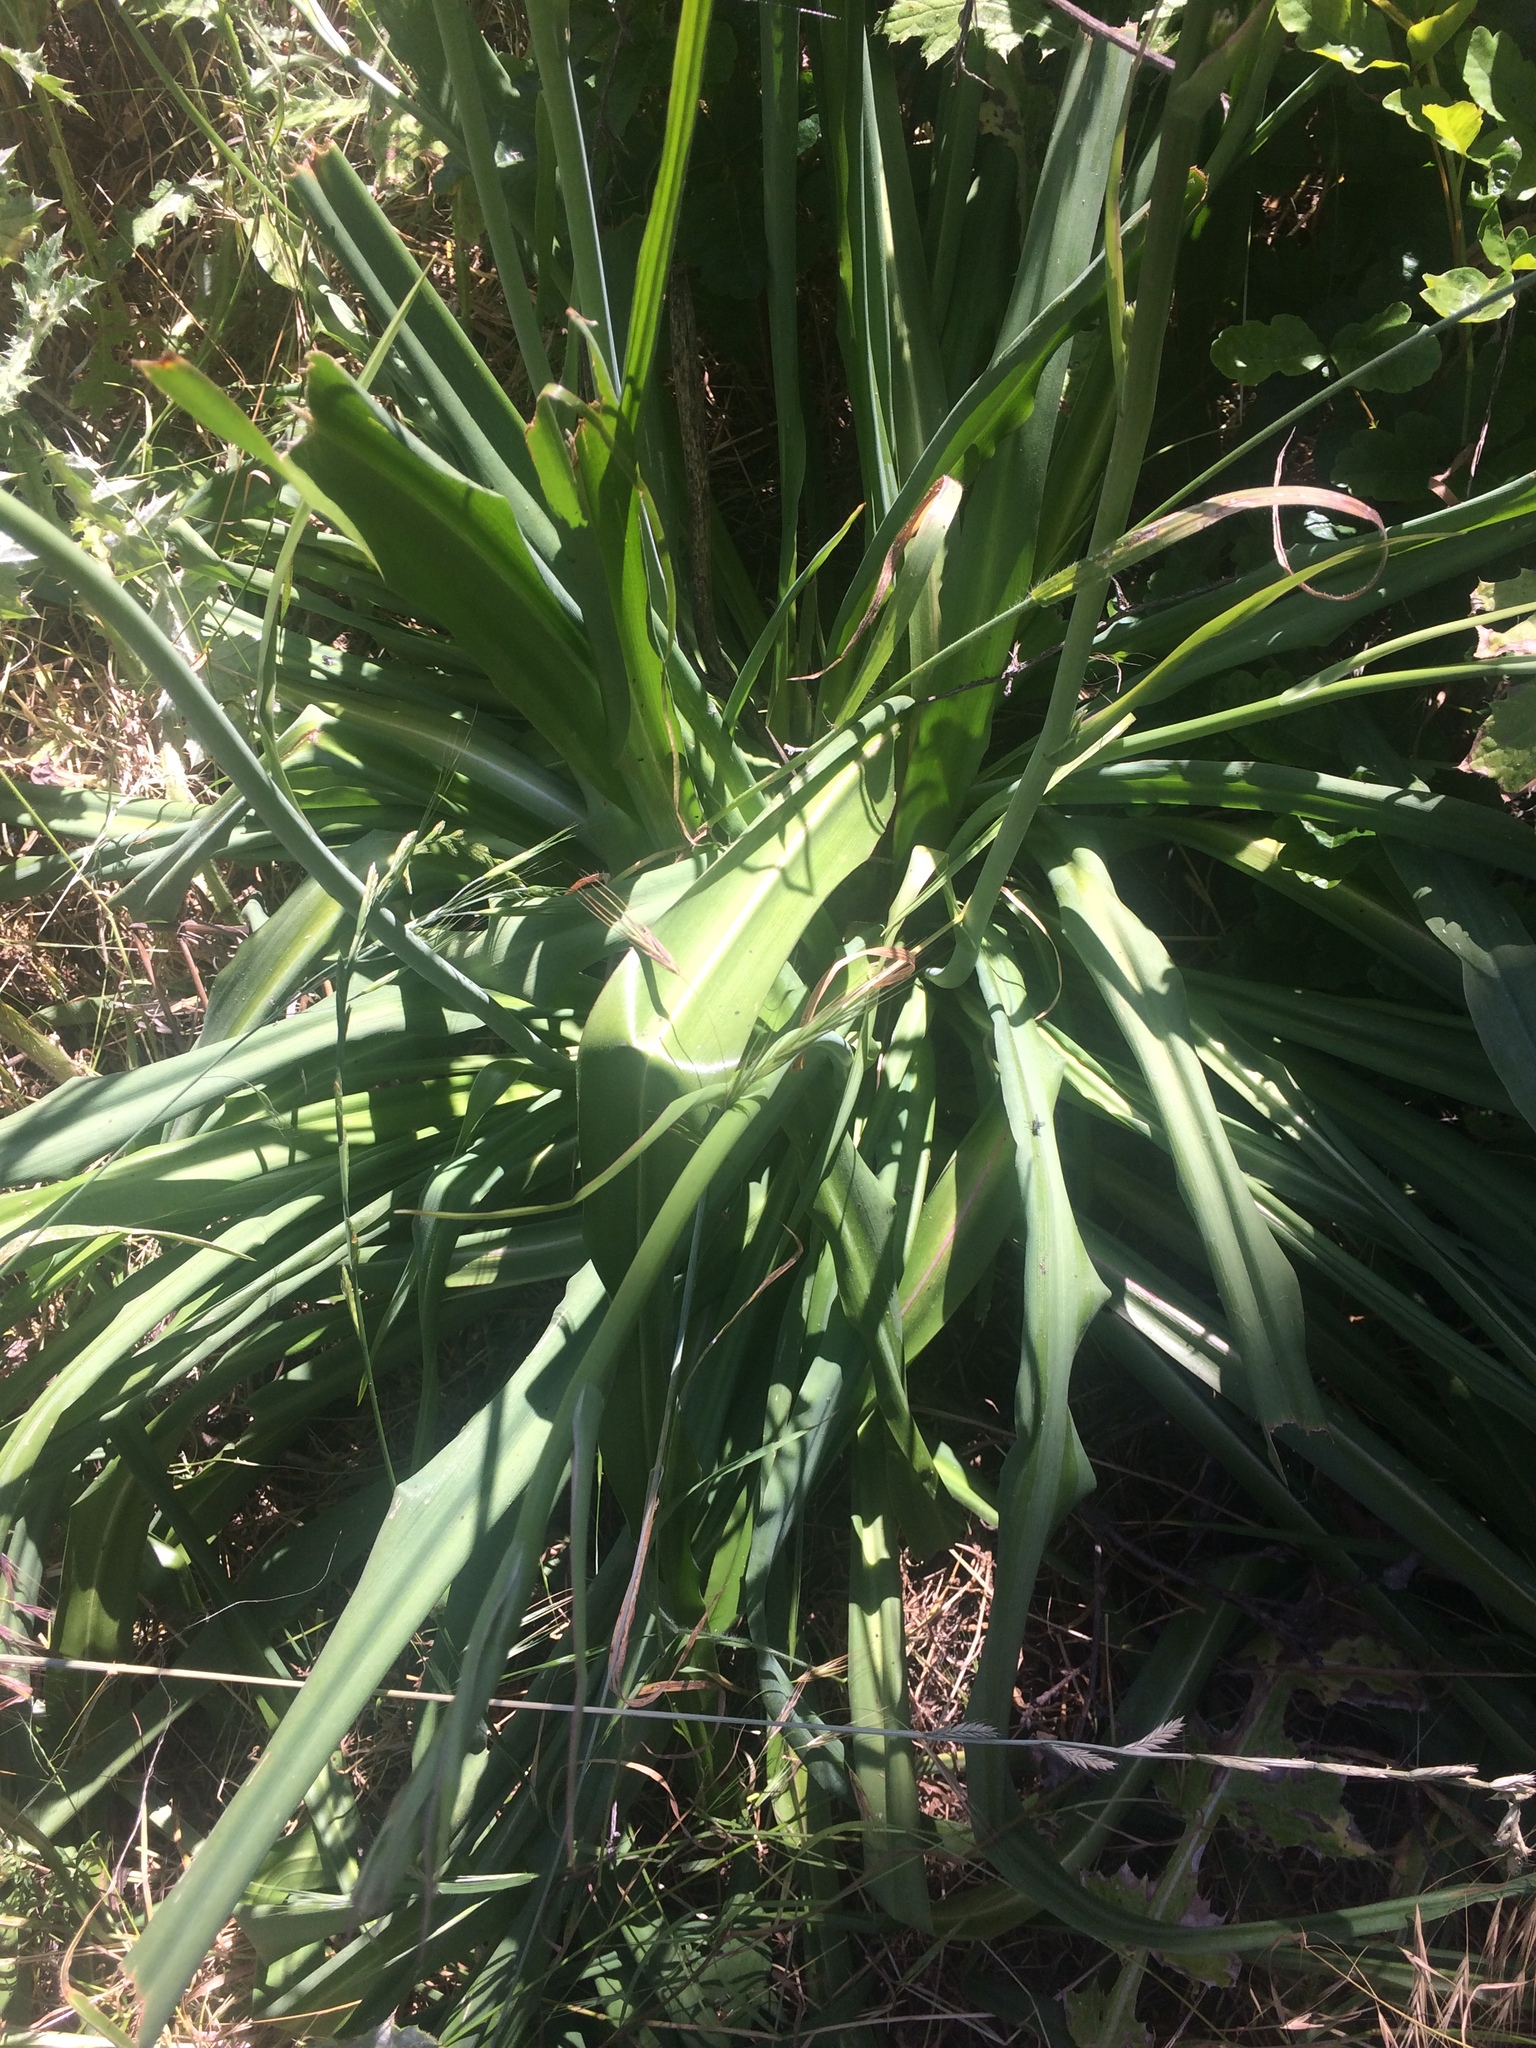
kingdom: Plantae
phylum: Tracheophyta
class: Liliopsida
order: Asparagales
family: Asparagaceae
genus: Chlorogalum
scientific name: Chlorogalum pomeridianum
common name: Amole
